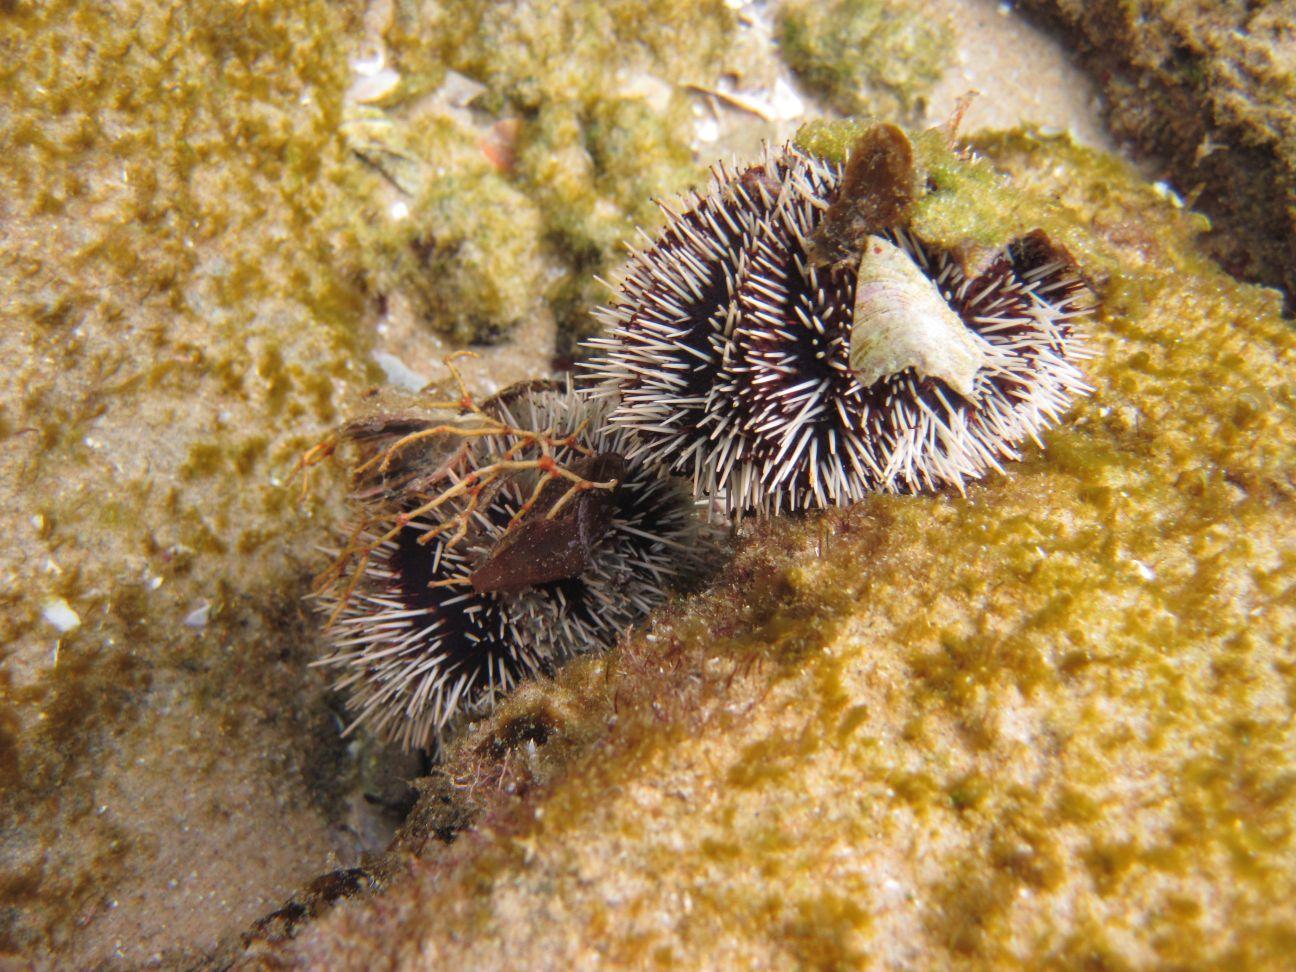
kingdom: Animalia
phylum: Echinodermata
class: Echinoidea
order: Camarodonta
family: Toxopneustidae
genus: Tripneustes
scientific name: Tripneustes gratilla
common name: Bischofsmützenseeigel
